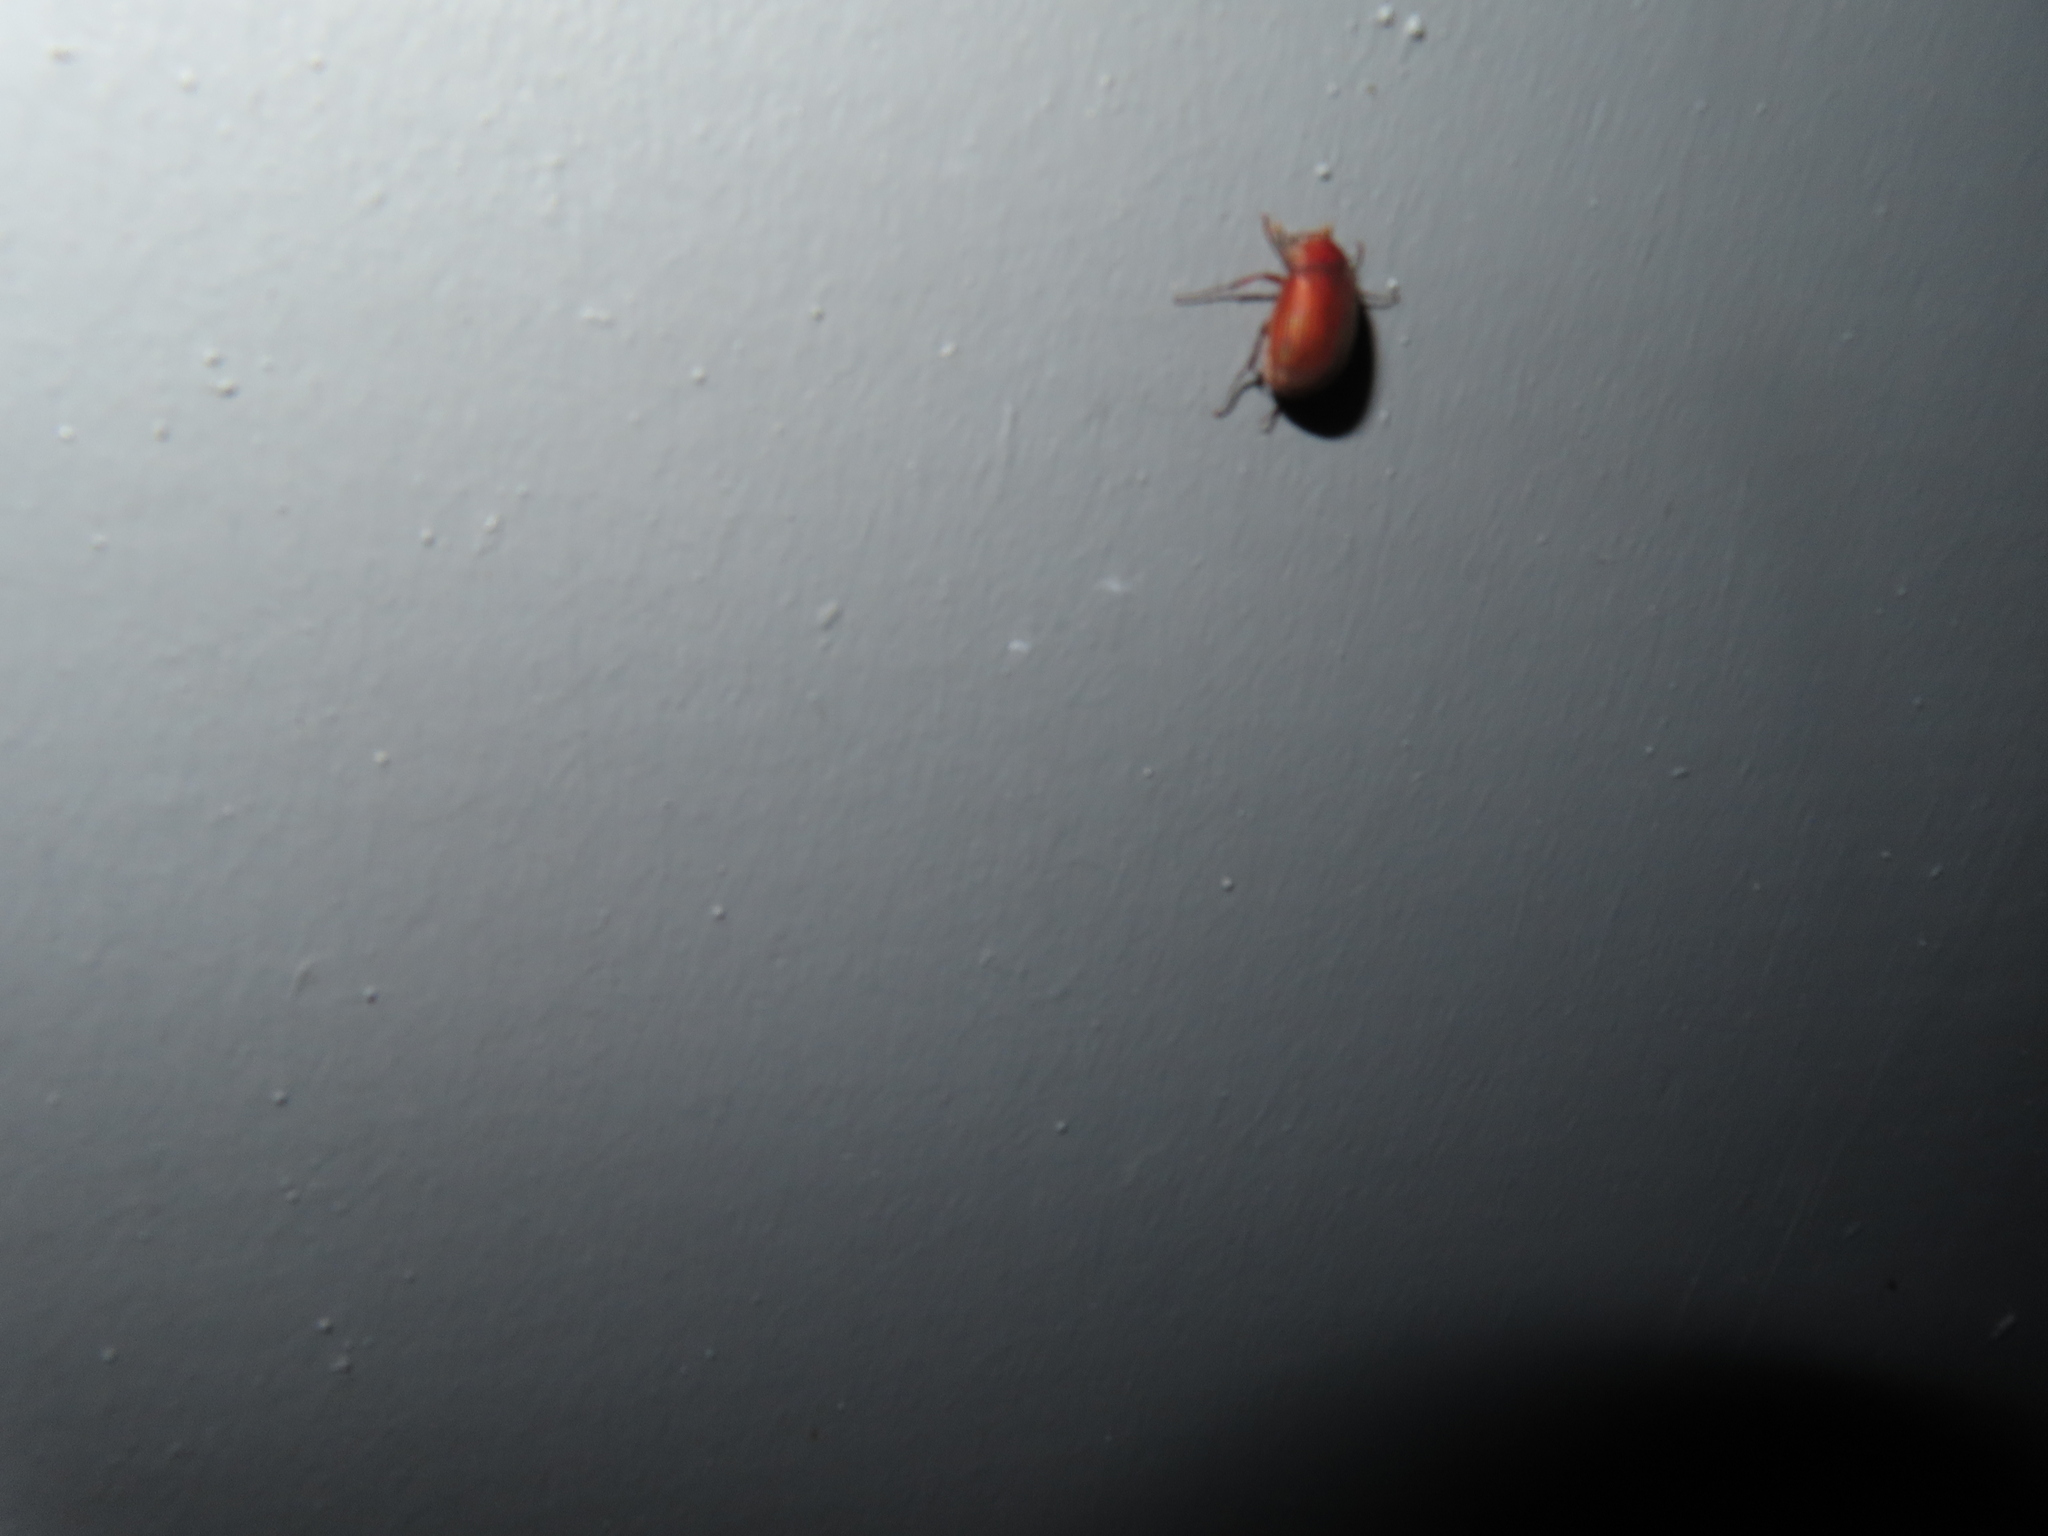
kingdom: Animalia
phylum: Arthropoda
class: Insecta
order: Coleoptera
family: Scarabaeidae
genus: Maladera
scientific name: Maladera formosae
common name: Asiatic garden beetle
